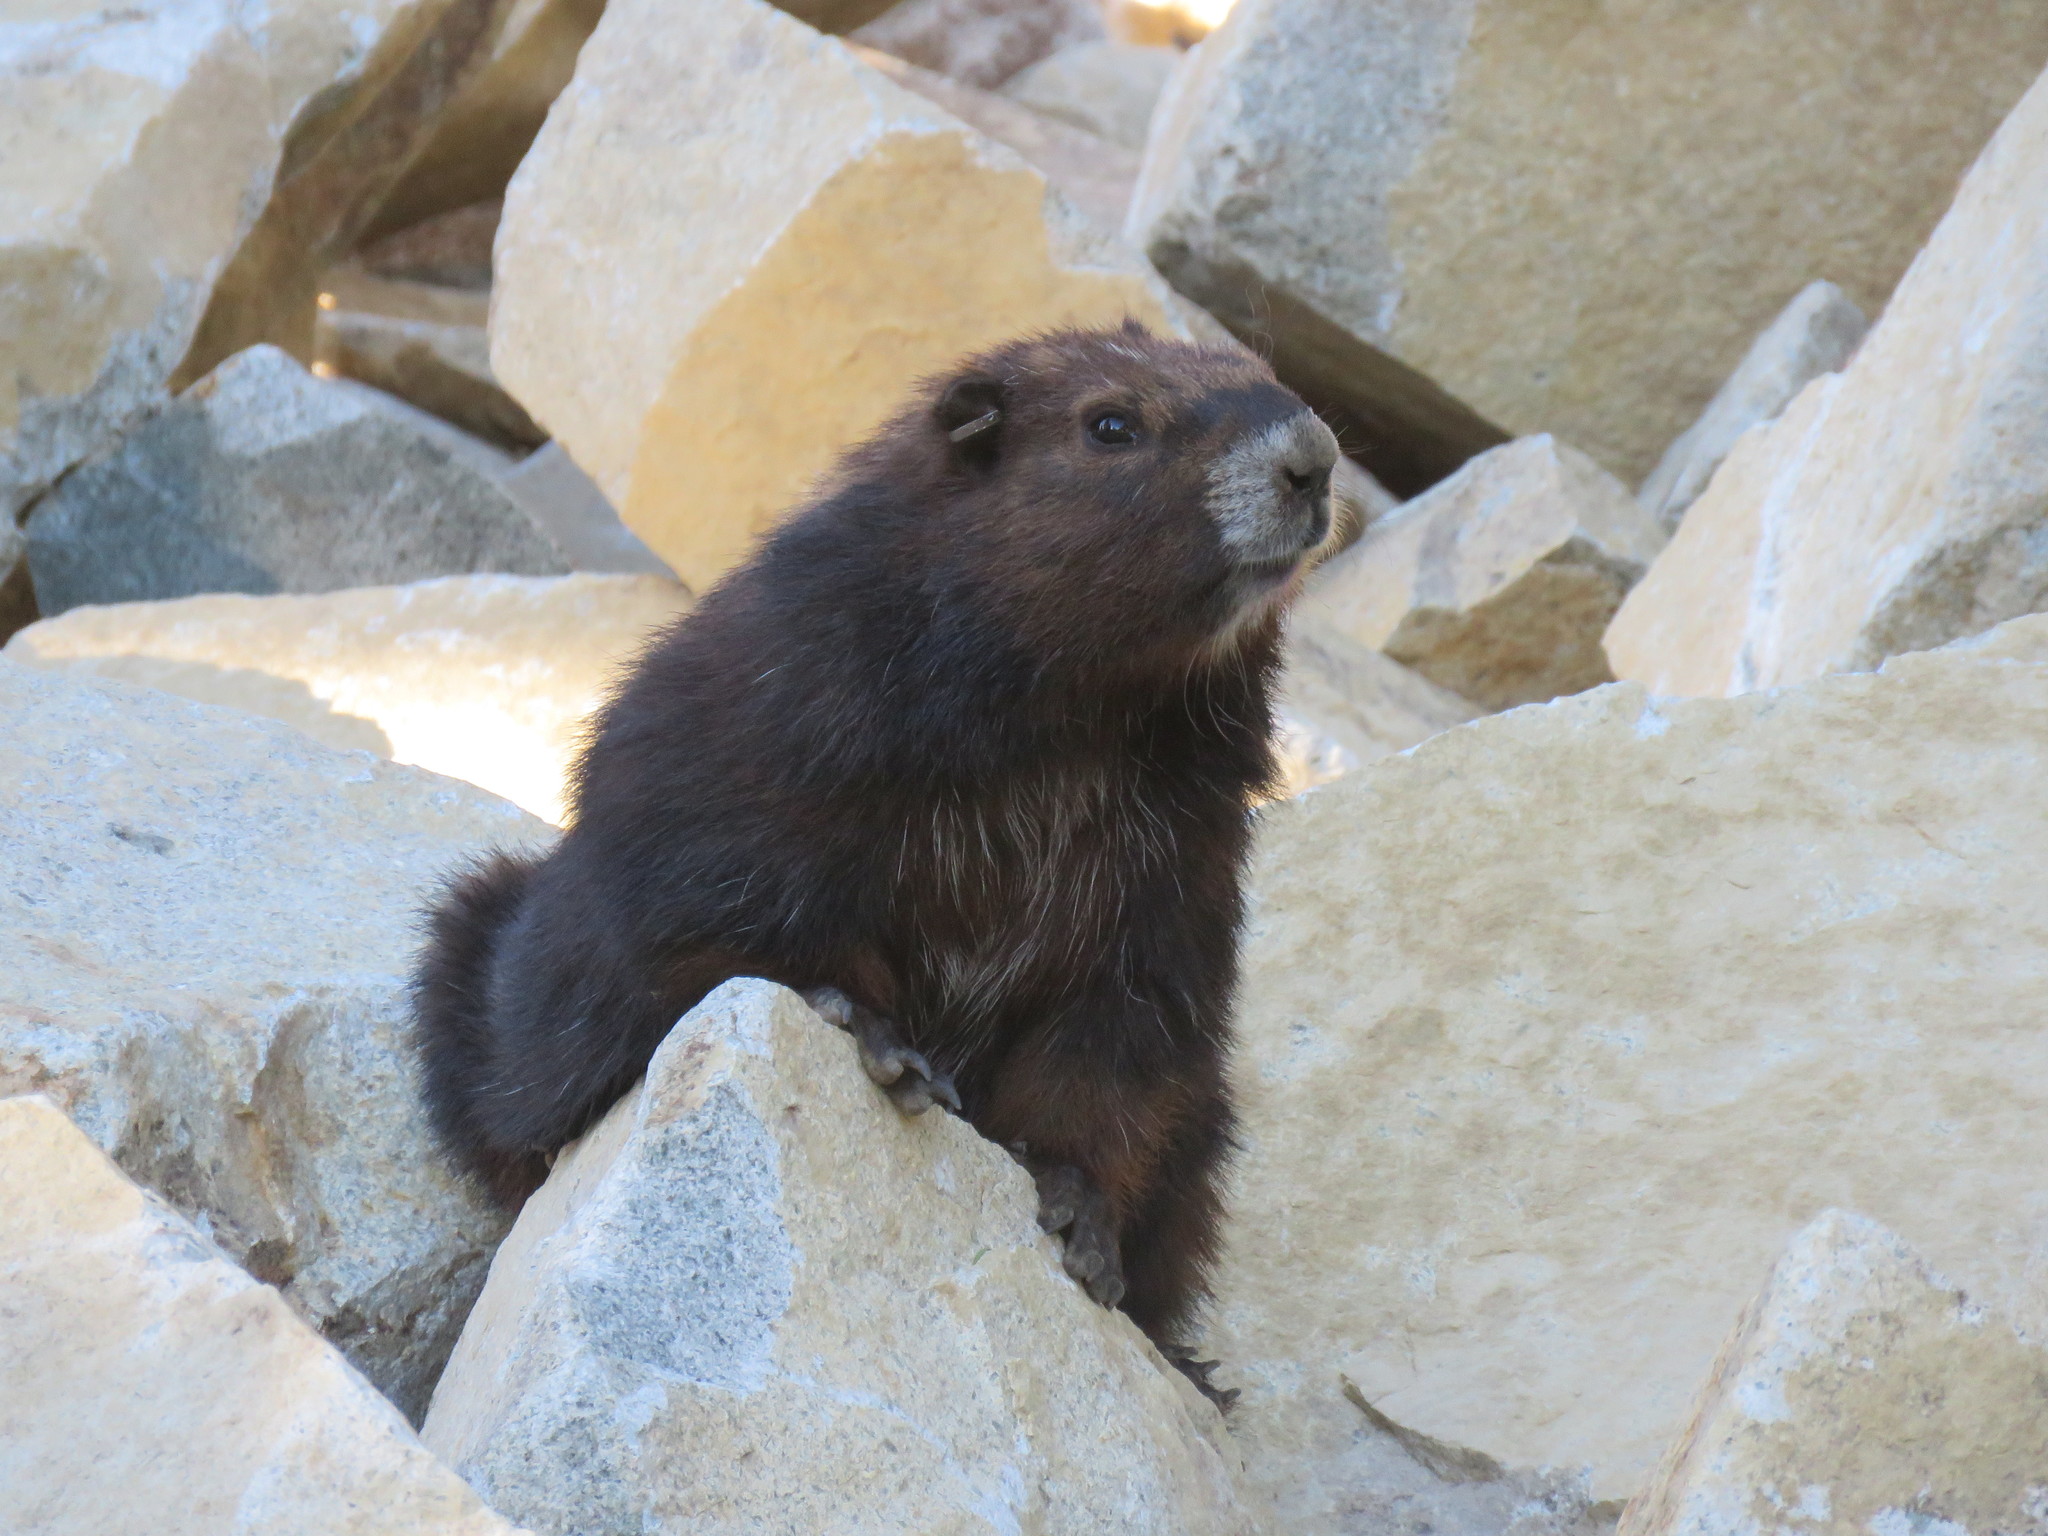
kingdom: Animalia
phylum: Chordata
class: Mammalia
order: Rodentia
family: Sciuridae
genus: Marmota
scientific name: Marmota vancouverensis
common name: Vancouver island marmot
